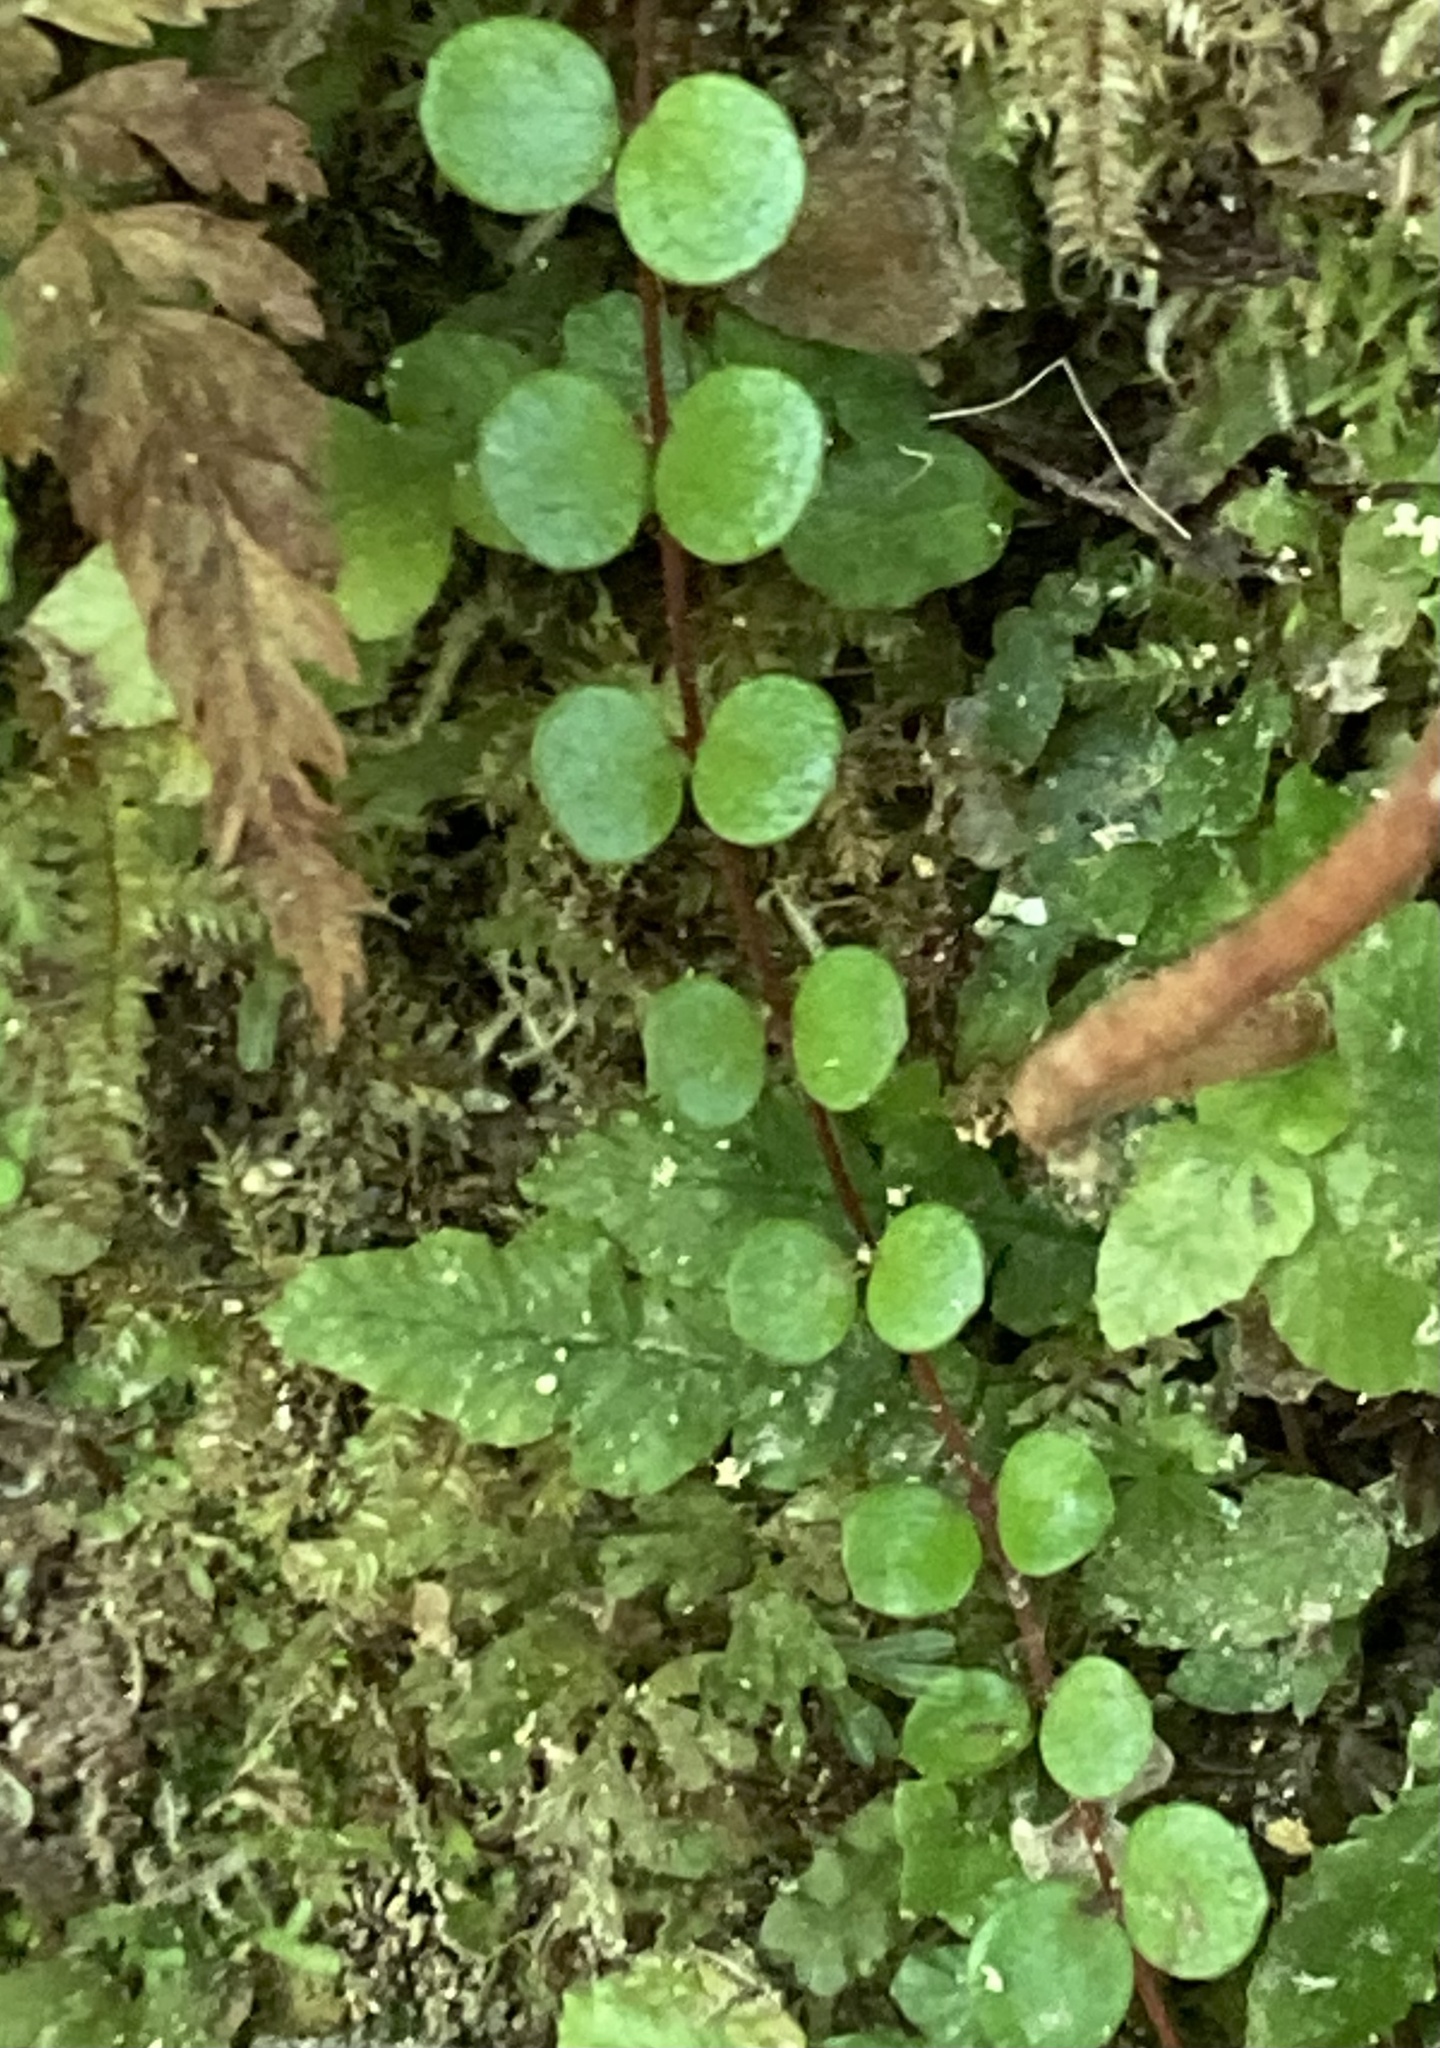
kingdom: Plantae
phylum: Tracheophyta
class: Magnoliopsida
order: Myrtales
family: Myrtaceae
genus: Metrosideros
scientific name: Metrosideros perforata
